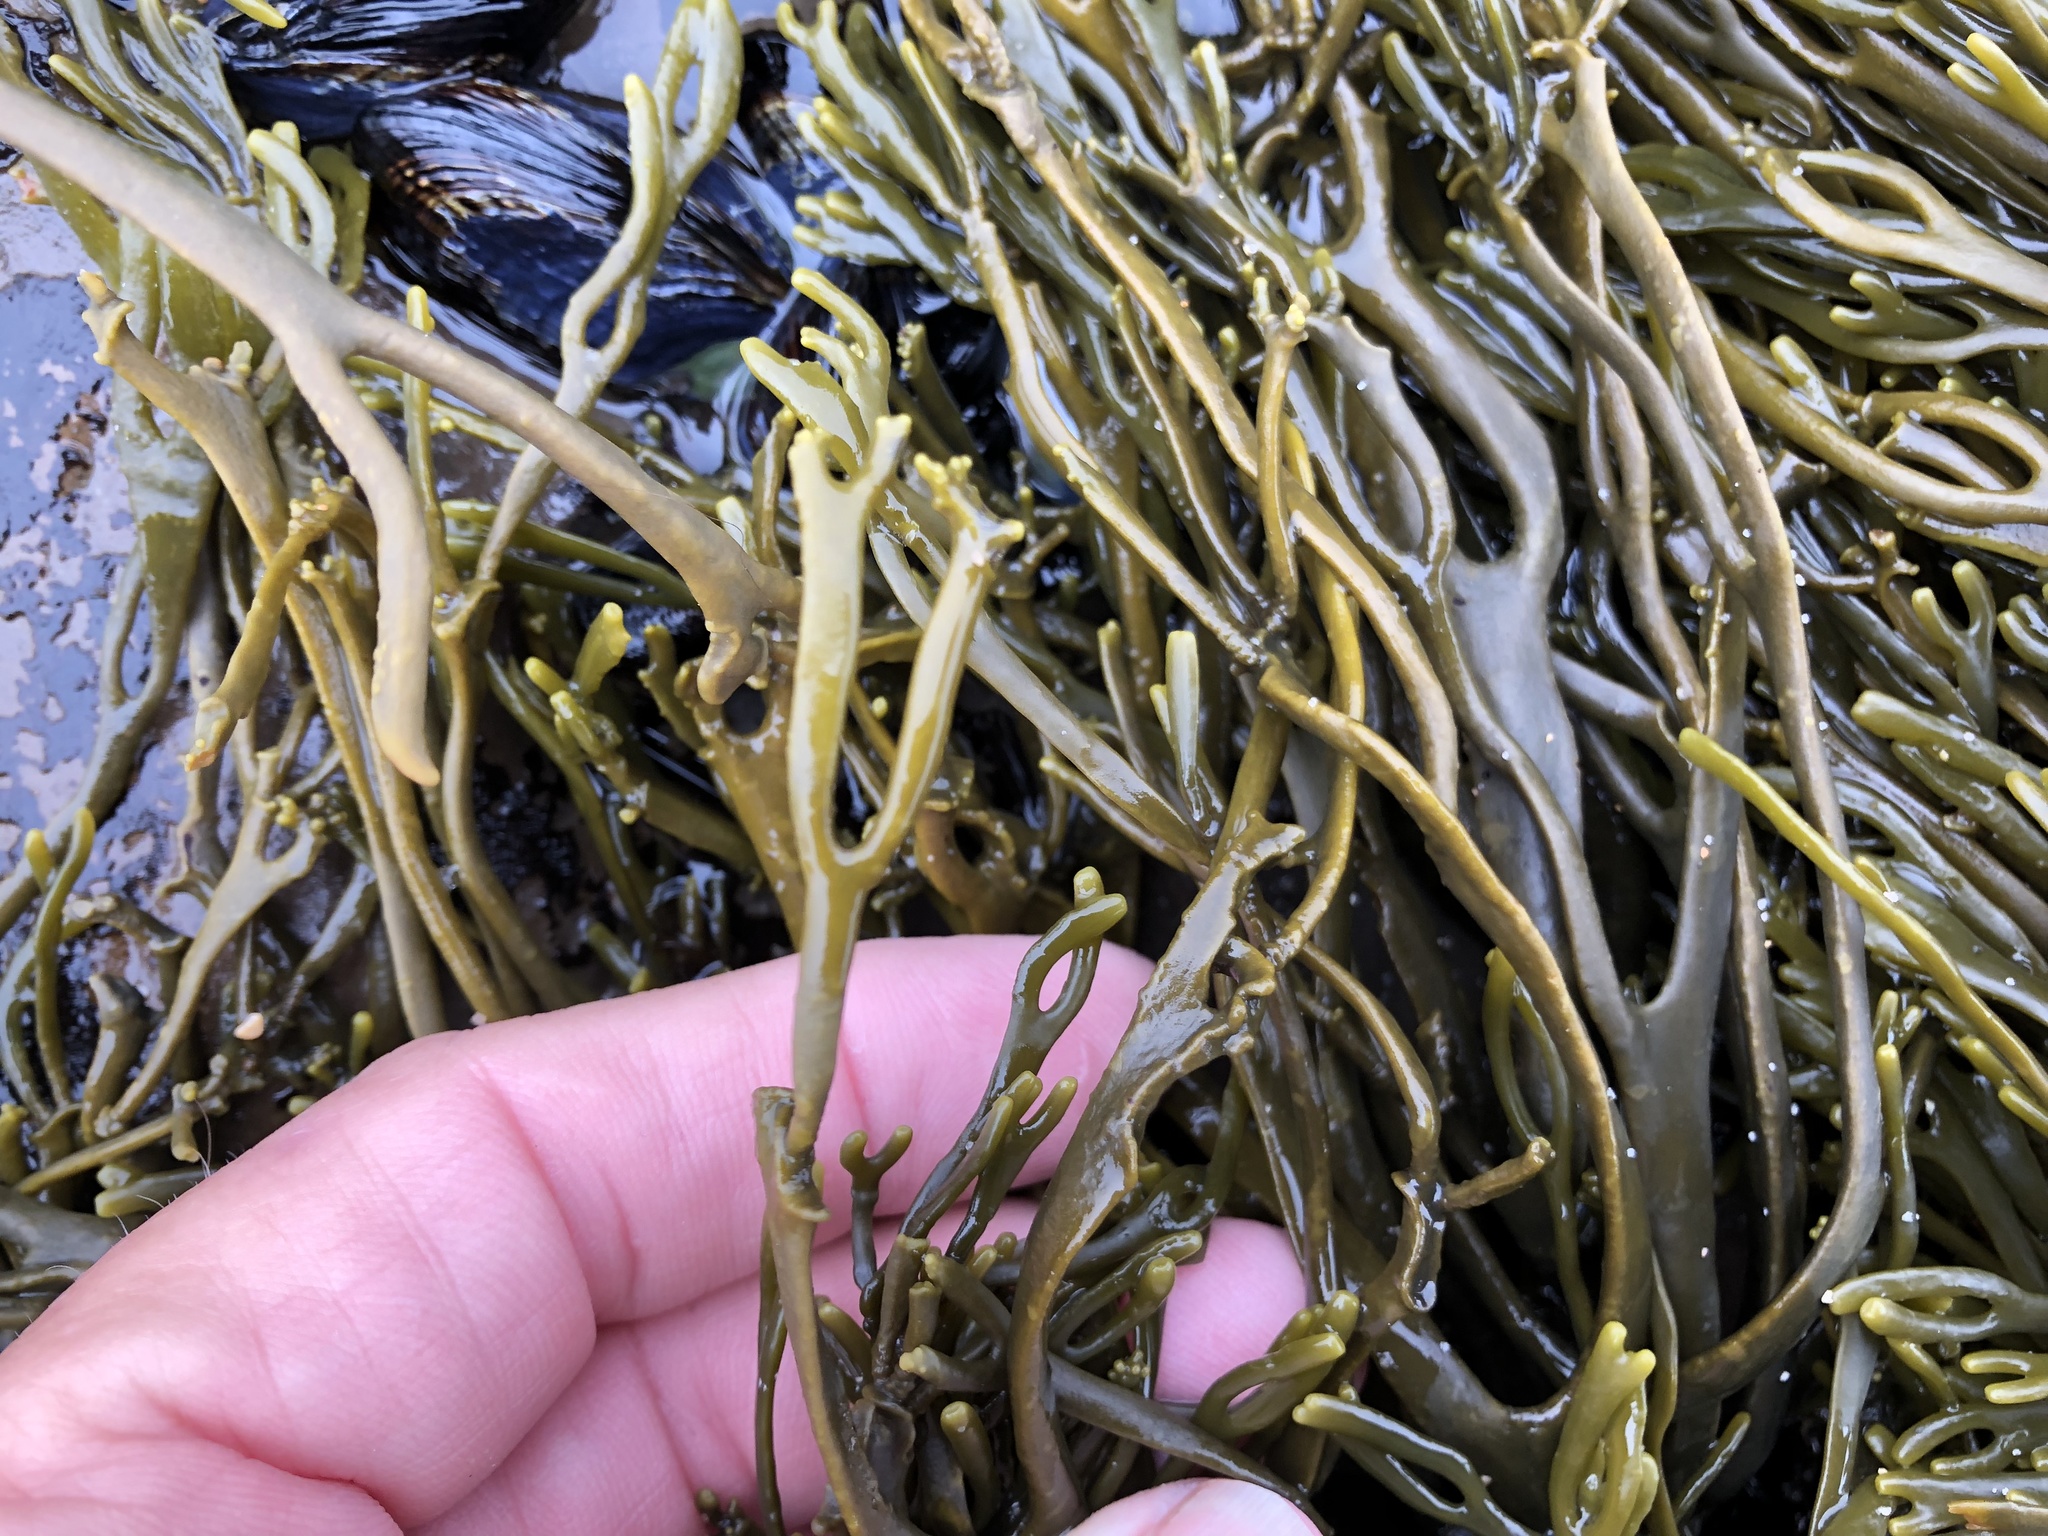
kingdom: Chromista
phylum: Ochrophyta
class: Phaeophyceae
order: Fucales
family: Fucaceae
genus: Silvetia
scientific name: Silvetia
